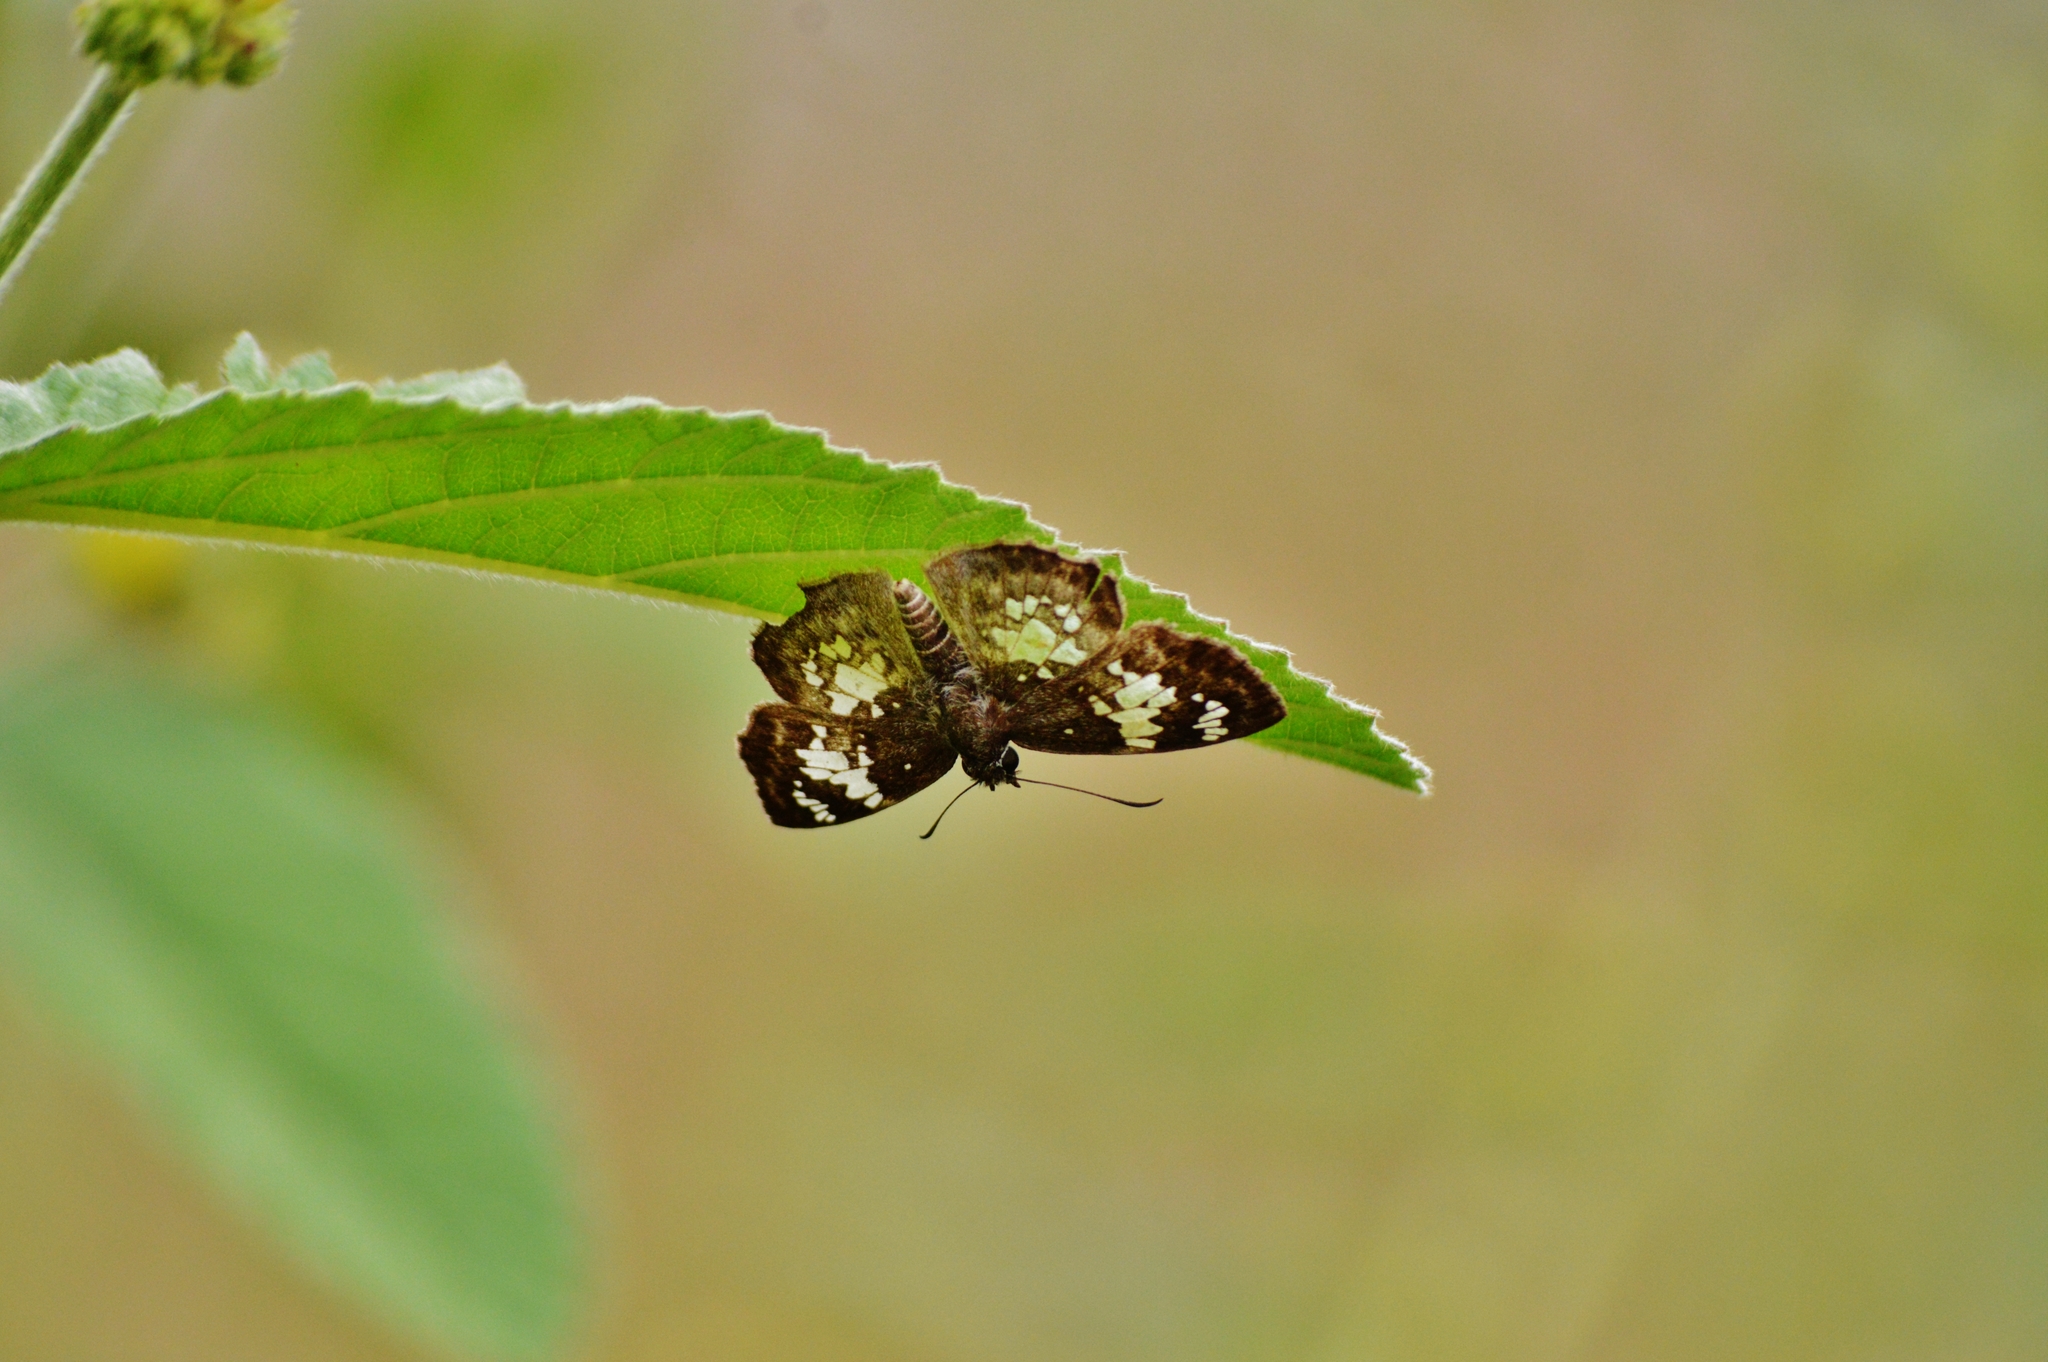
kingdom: Animalia
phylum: Arthropoda
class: Insecta
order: Lepidoptera
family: Hesperiidae
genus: Xenophanes
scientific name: Xenophanes tryxus
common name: Glassy-winged skipper
